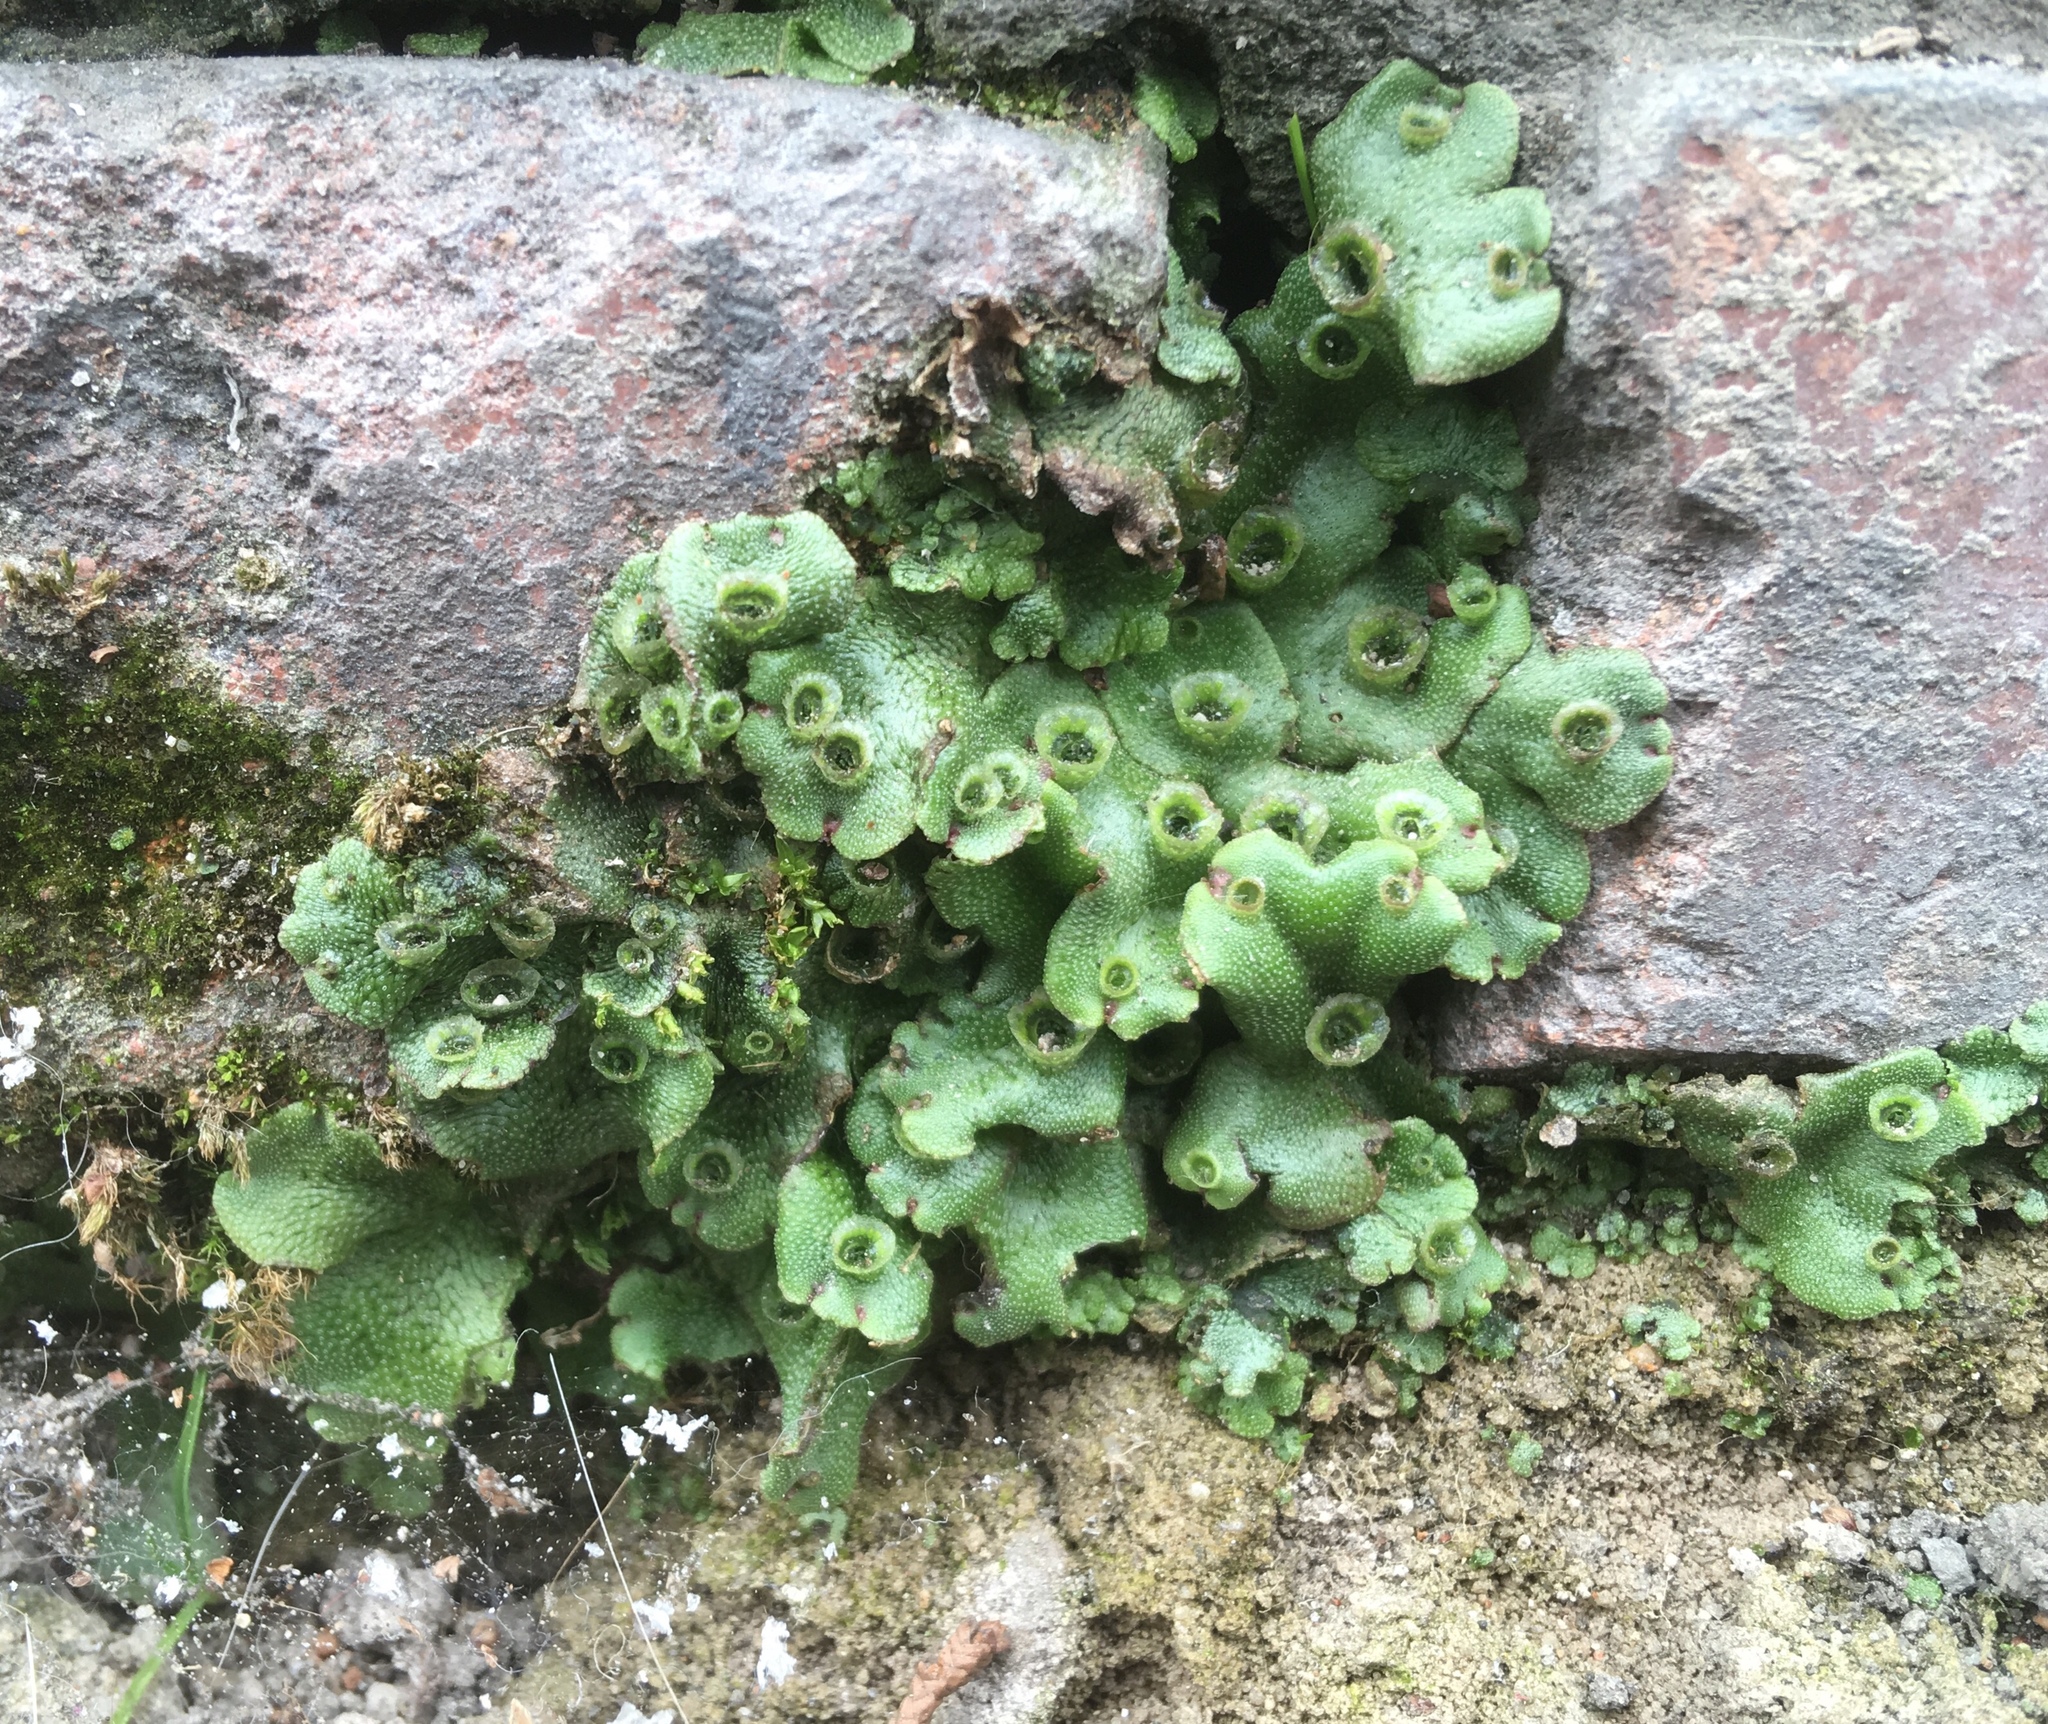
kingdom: Plantae
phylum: Marchantiophyta
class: Marchantiopsida
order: Marchantiales
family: Marchantiaceae
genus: Marchantia
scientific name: Marchantia polymorpha
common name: Common liverwort
